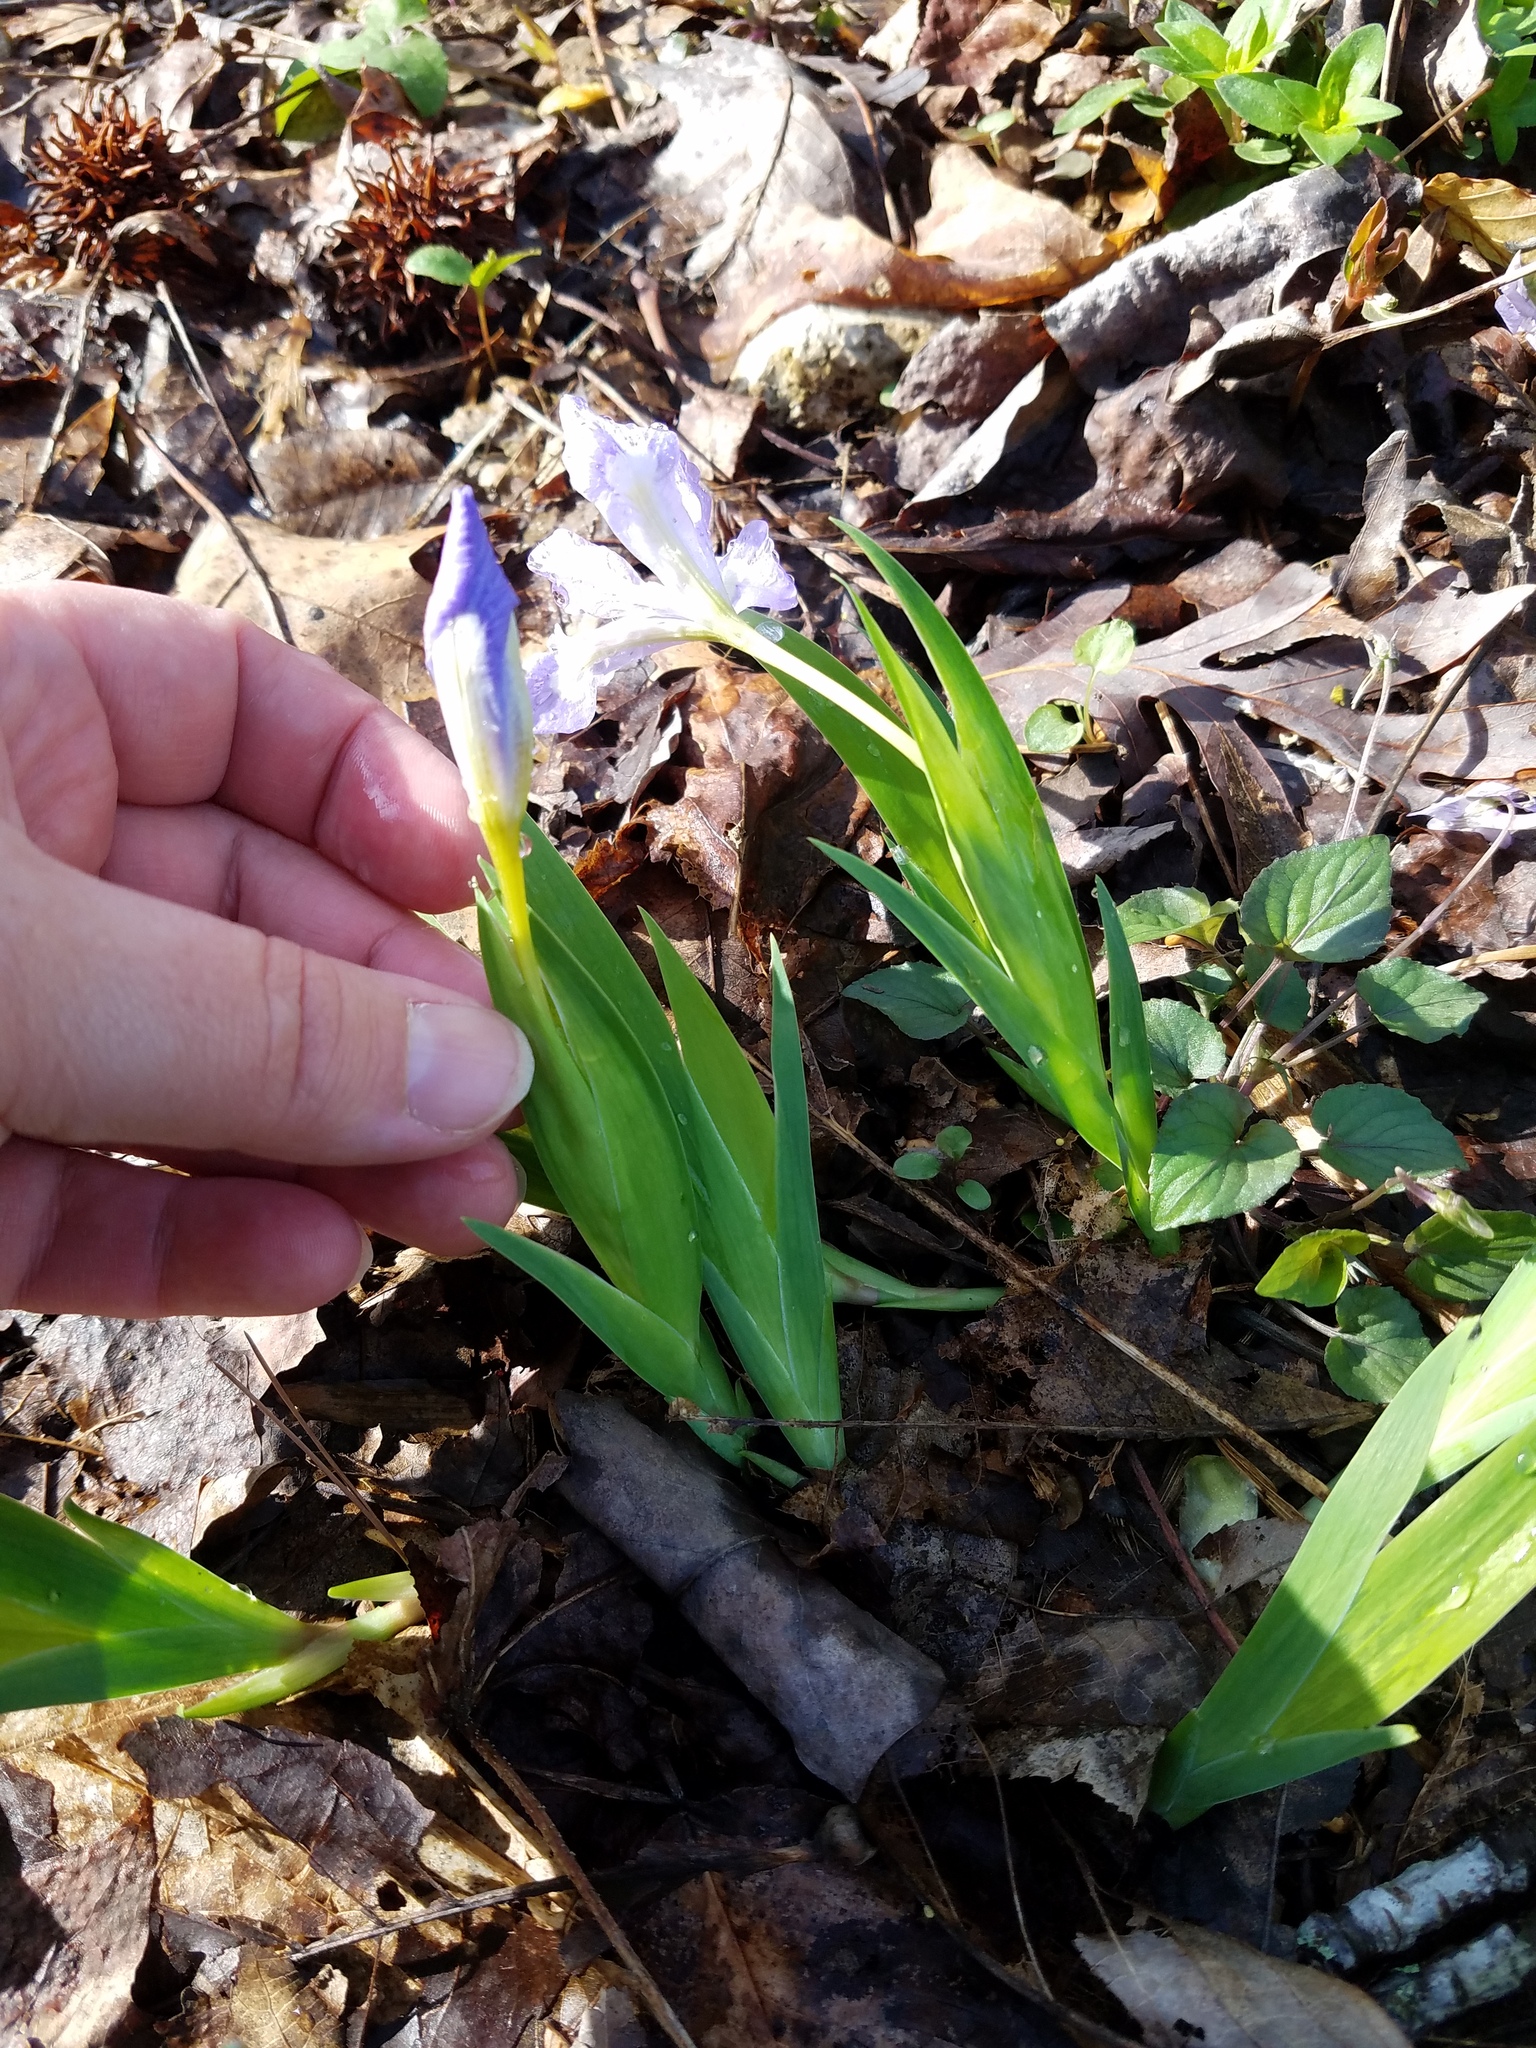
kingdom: Plantae
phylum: Tracheophyta
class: Liliopsida
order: Asparagales
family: Iridaceae
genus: Iris
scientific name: Iris cristata
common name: Crested iris
